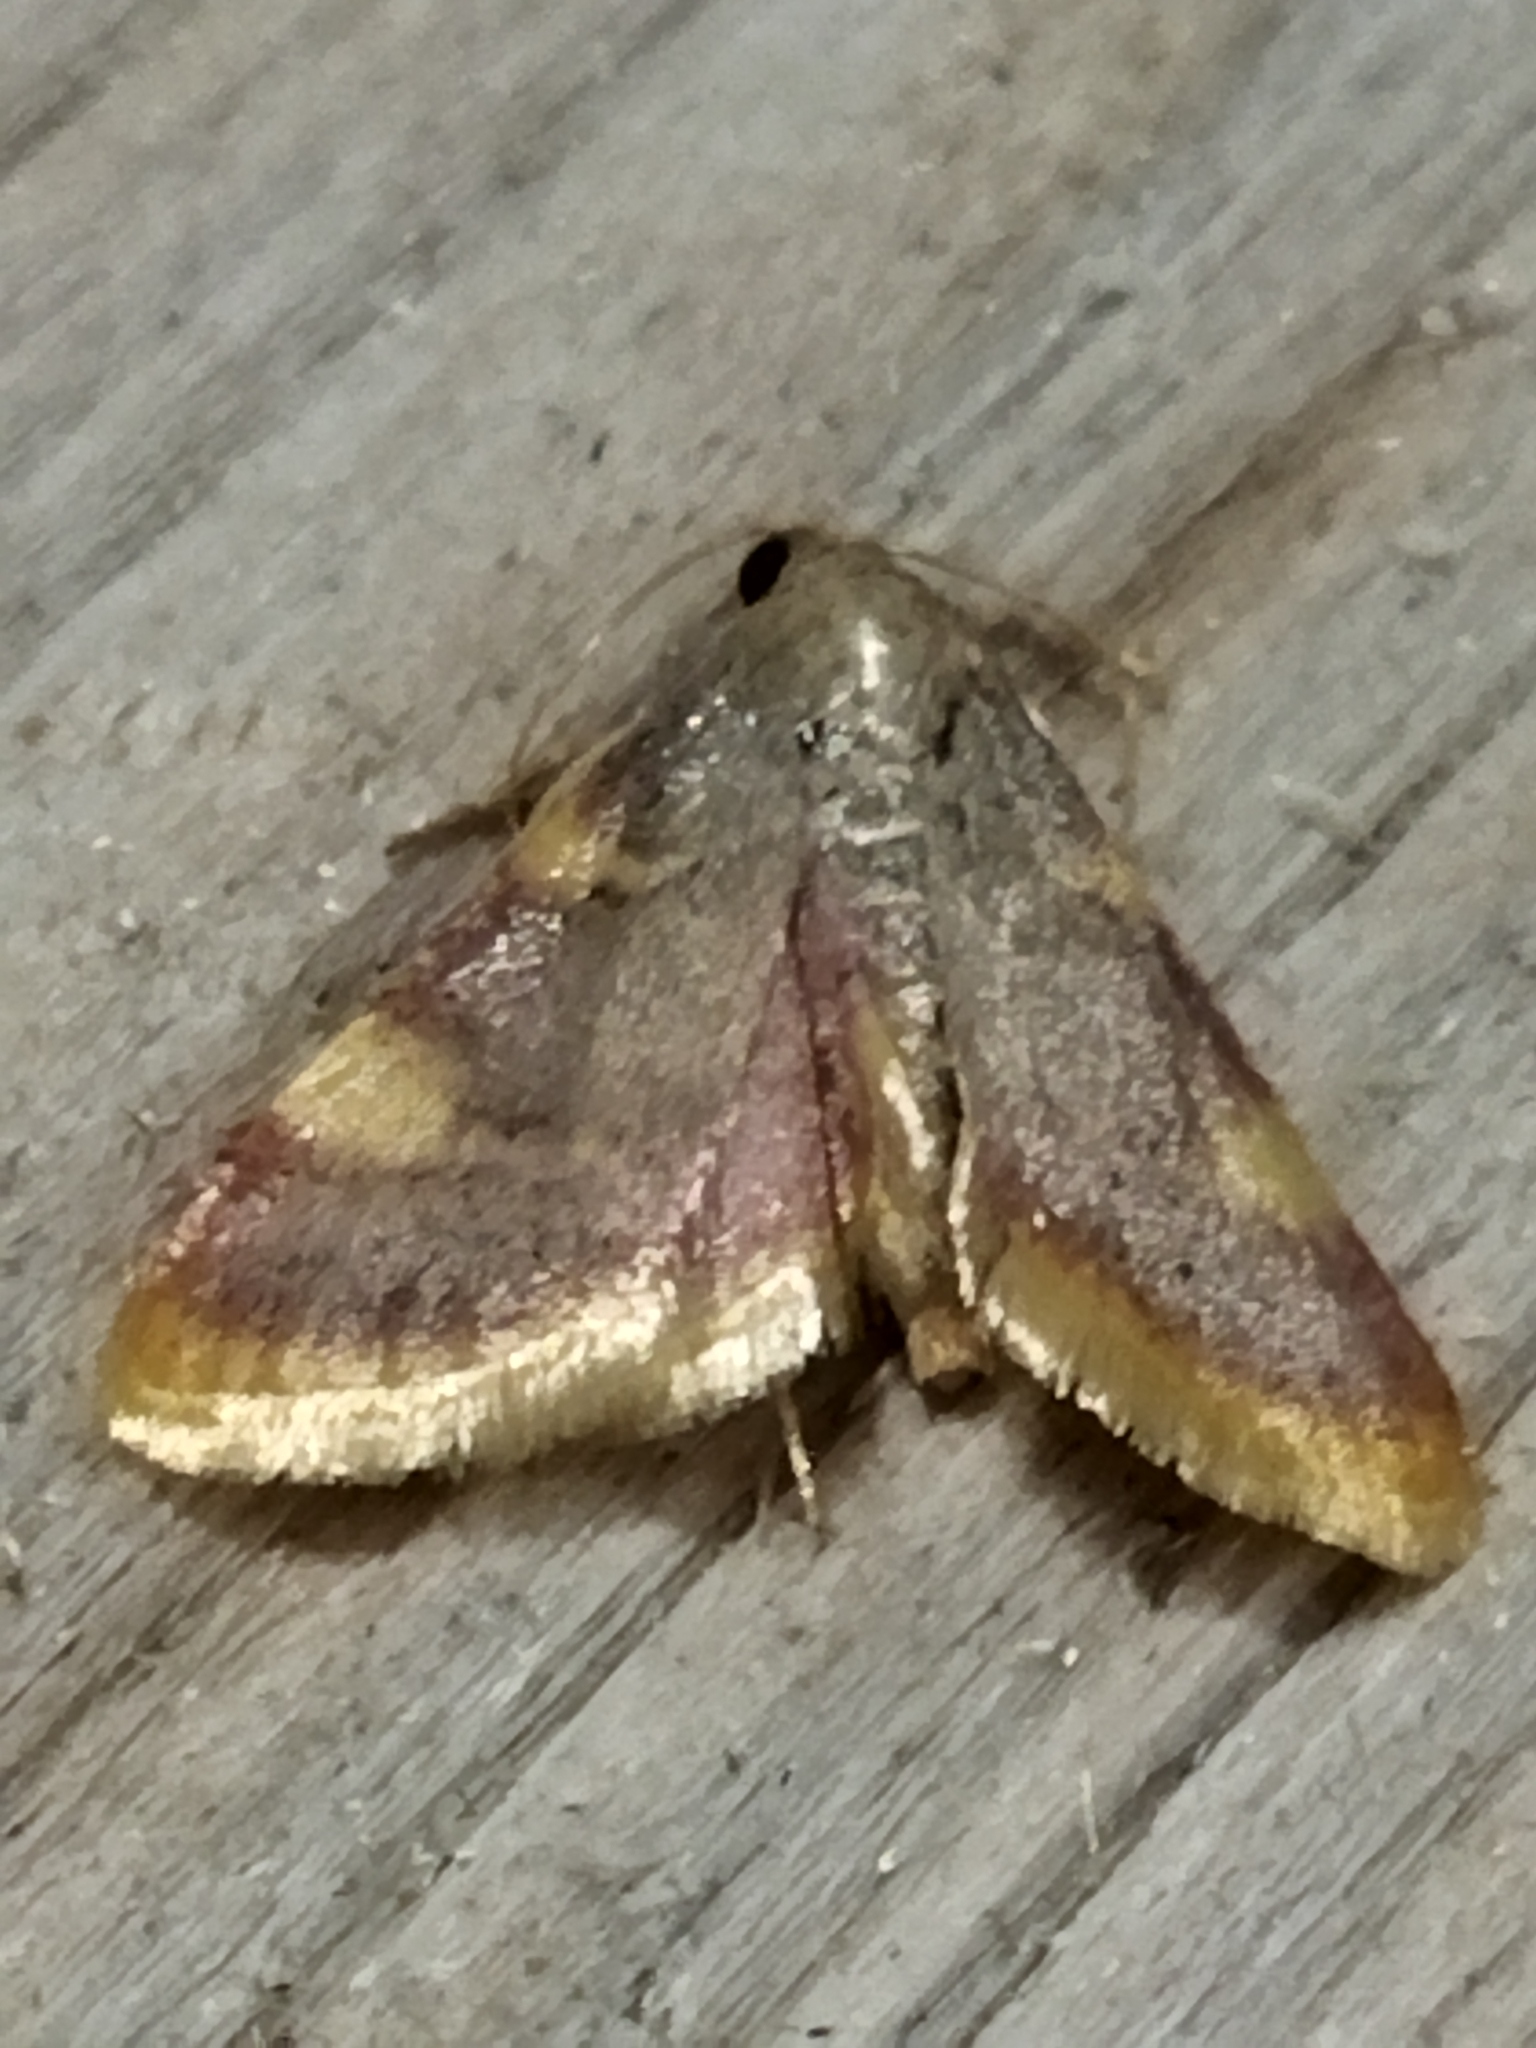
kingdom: Animalia
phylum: Arthropoda
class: Insecta
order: Lepidoptera
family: Pyralidae
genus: Hypsopygia
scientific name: Hypsopygia costalis
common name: Gold triangle
